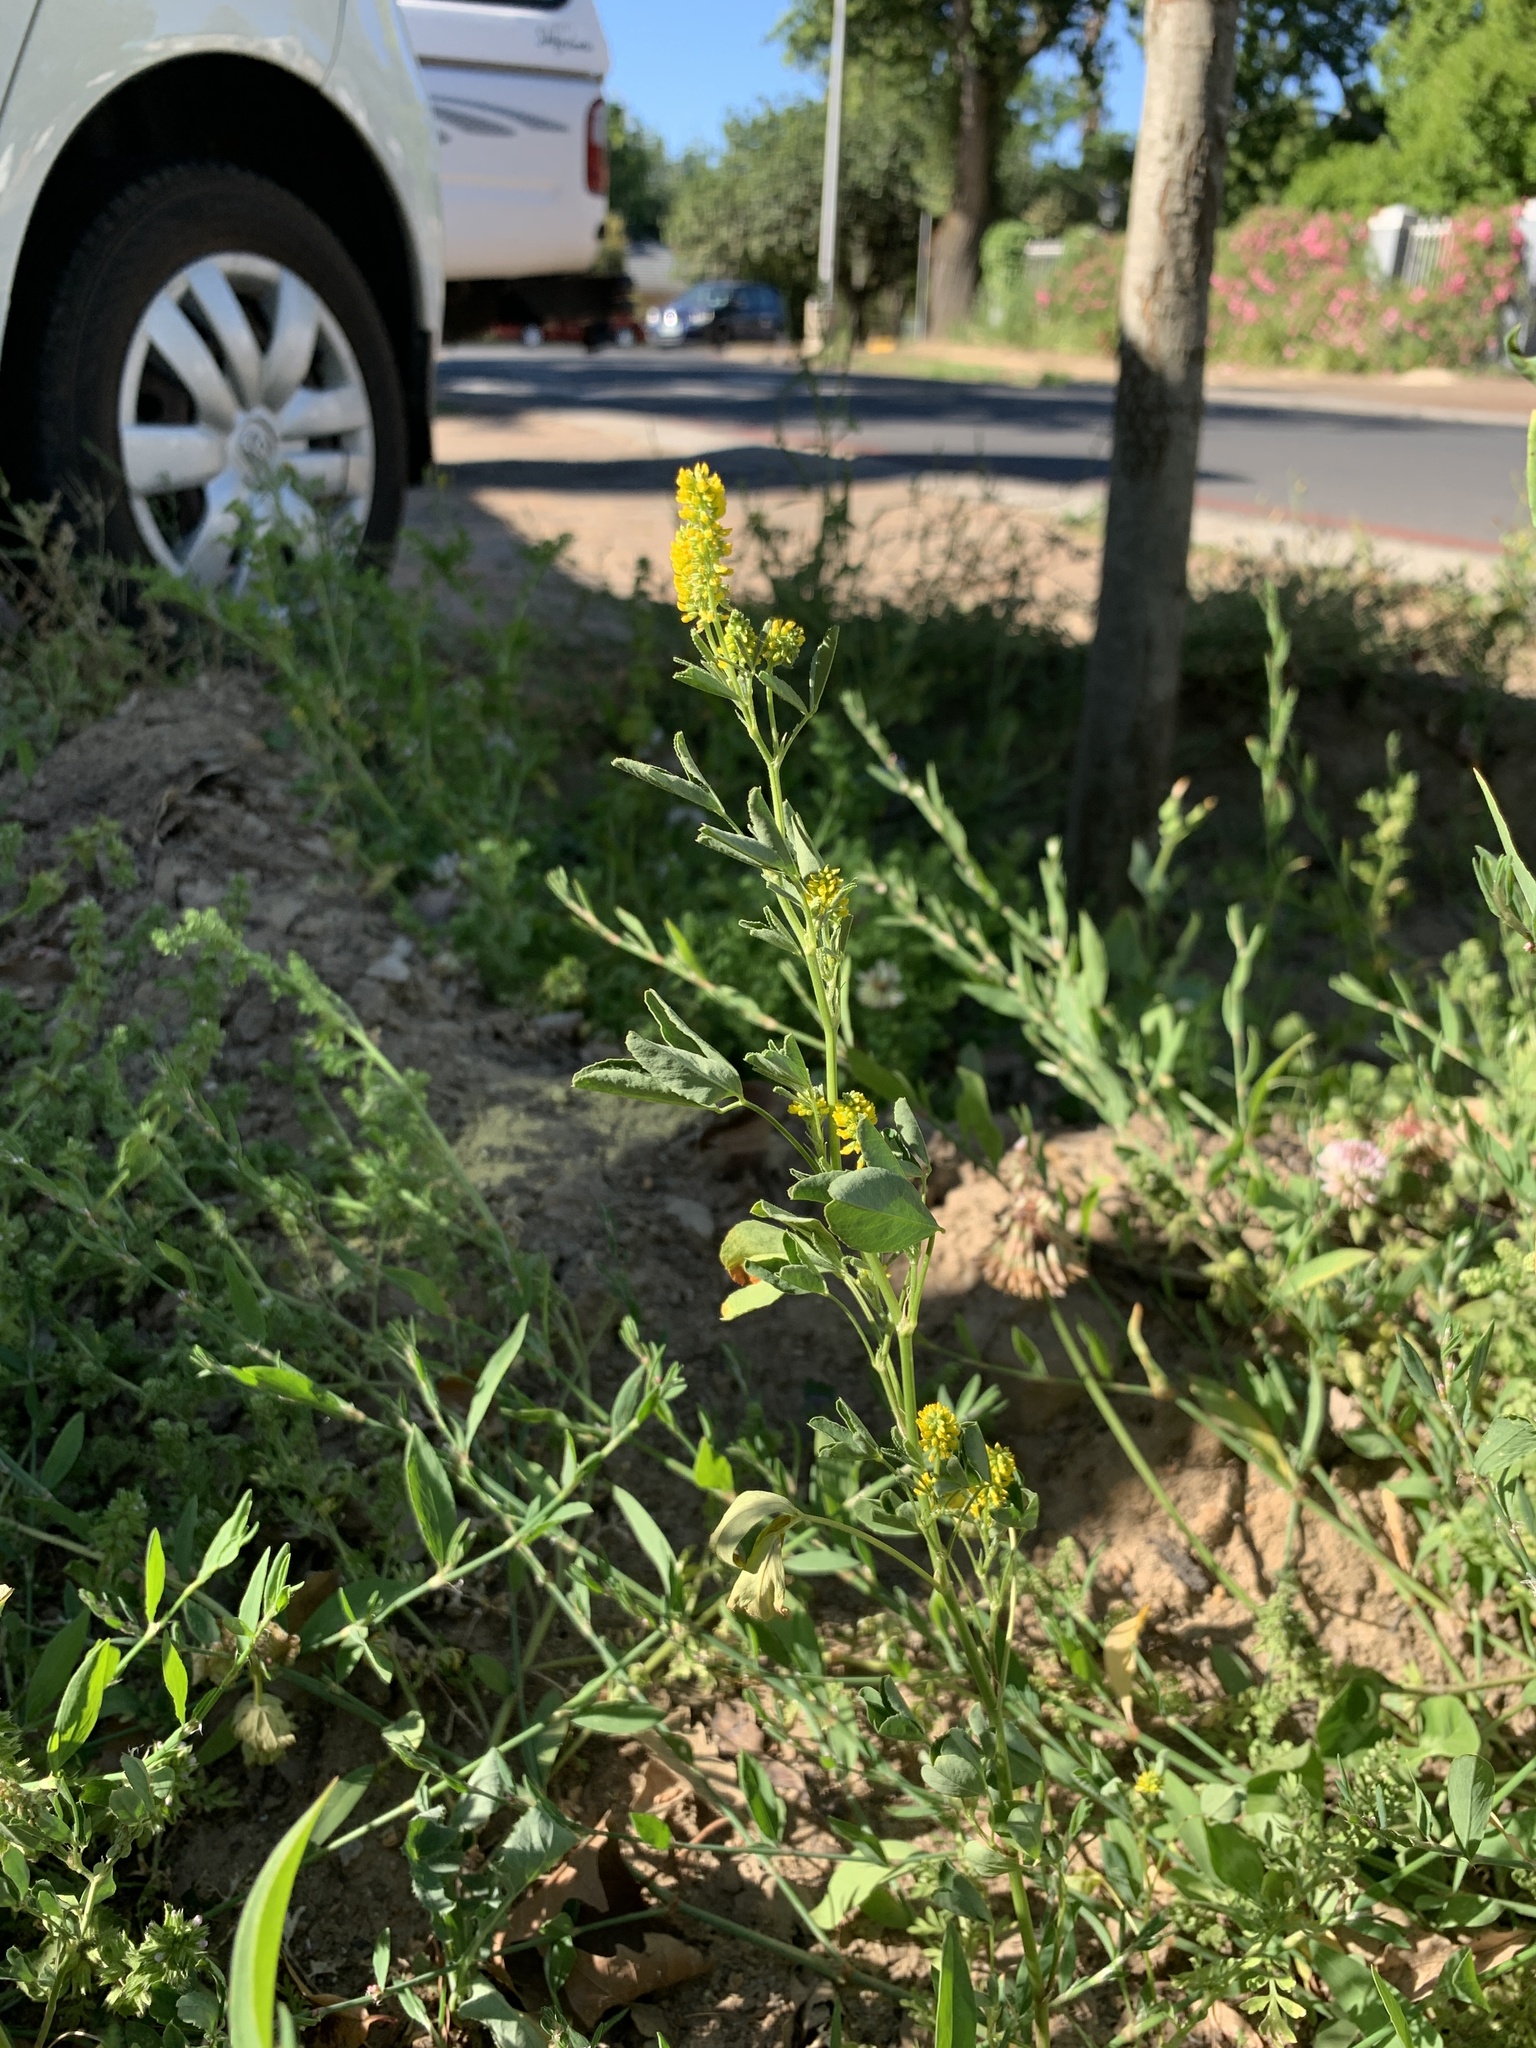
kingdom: Plantae
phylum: Tracheophyta
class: Magnoliopsida
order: Fabales
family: Fabaceae
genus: Melilotus
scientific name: Melilotus indicus
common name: Small melilot
